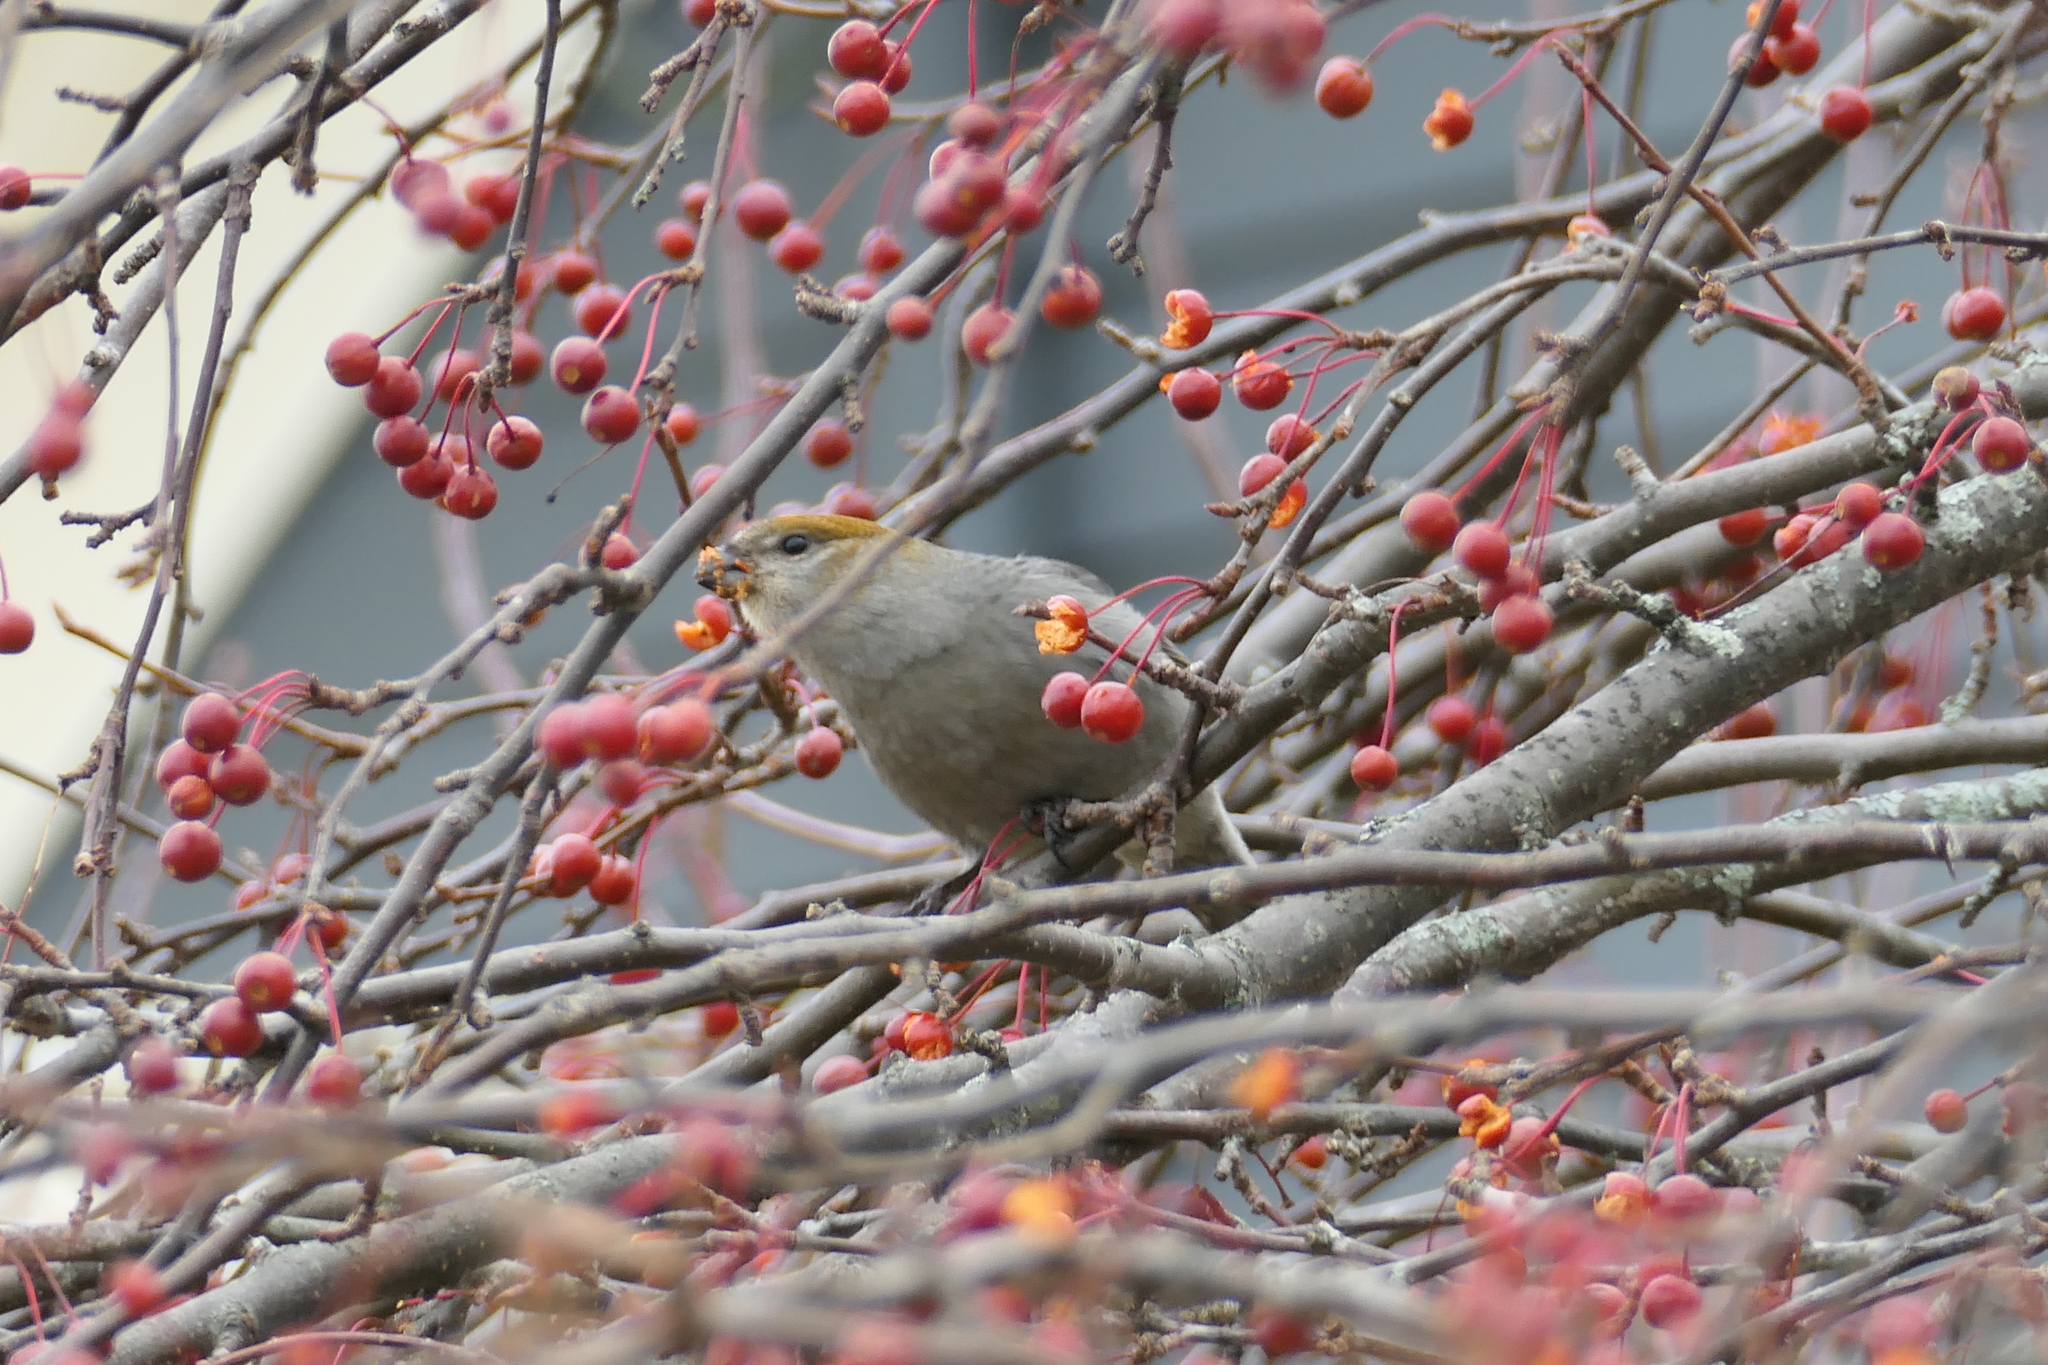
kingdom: Animalia
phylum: Chordata
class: Aves
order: Passeriformes
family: Fringillidae
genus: Pinicola
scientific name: Pinicola enucleator
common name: Pine grosbeak
